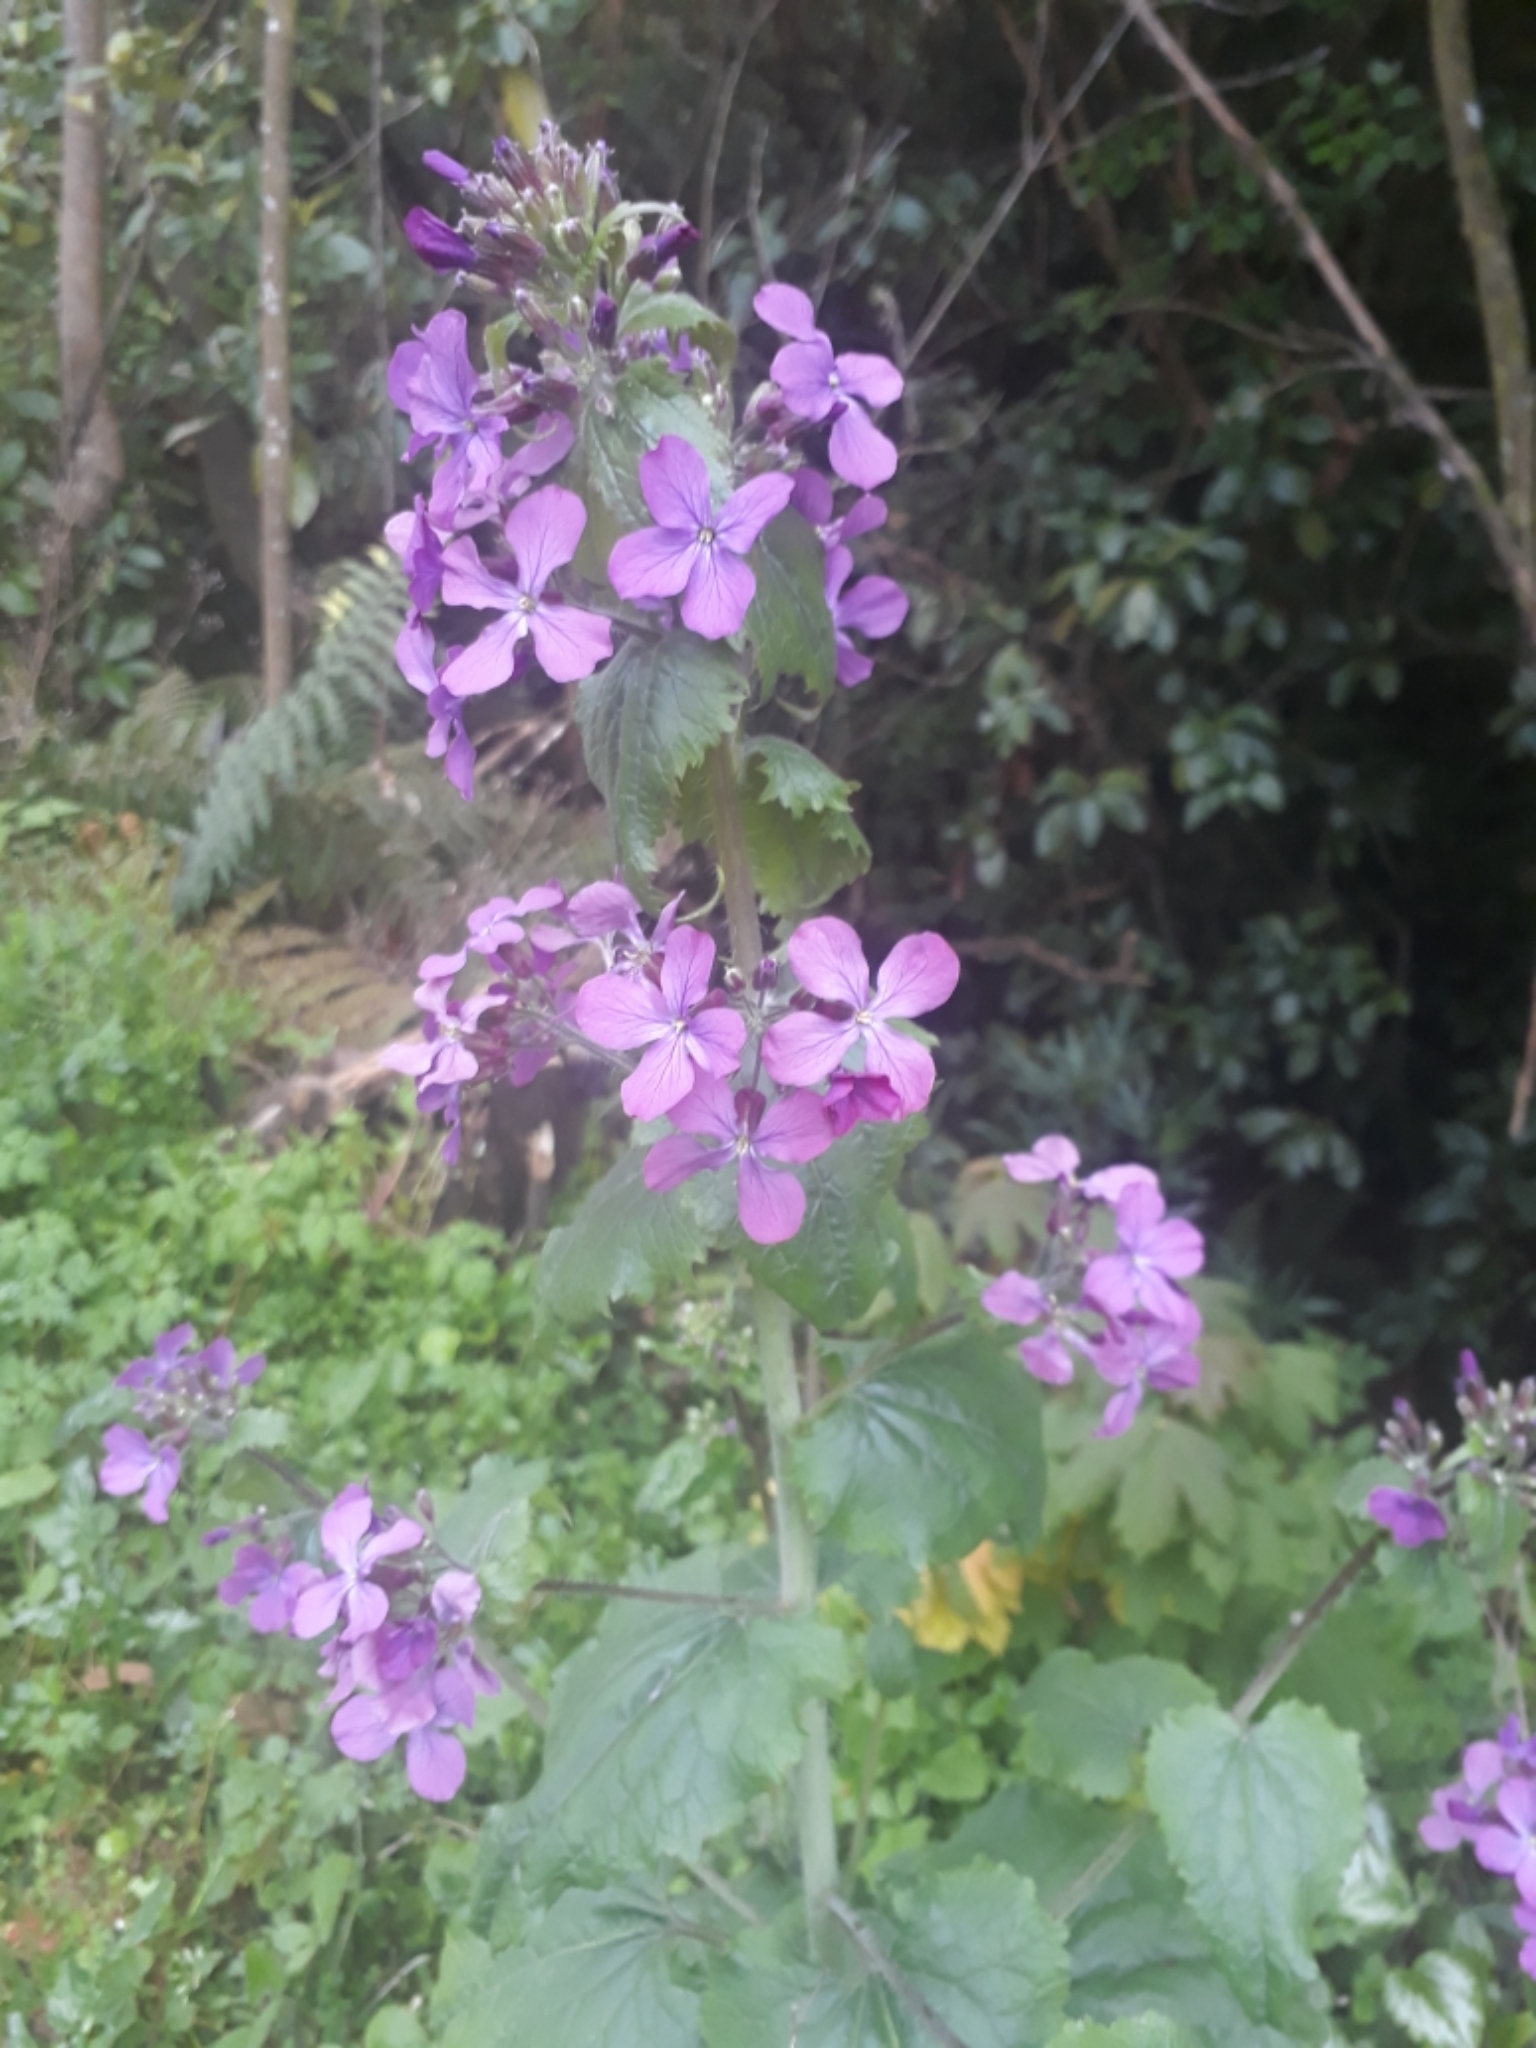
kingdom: Plantae
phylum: Tracheophyta
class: Magnoliopsida
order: Brassicales
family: Brassicaceae
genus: Lunaria
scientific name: Lunaria annua
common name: Honesty
